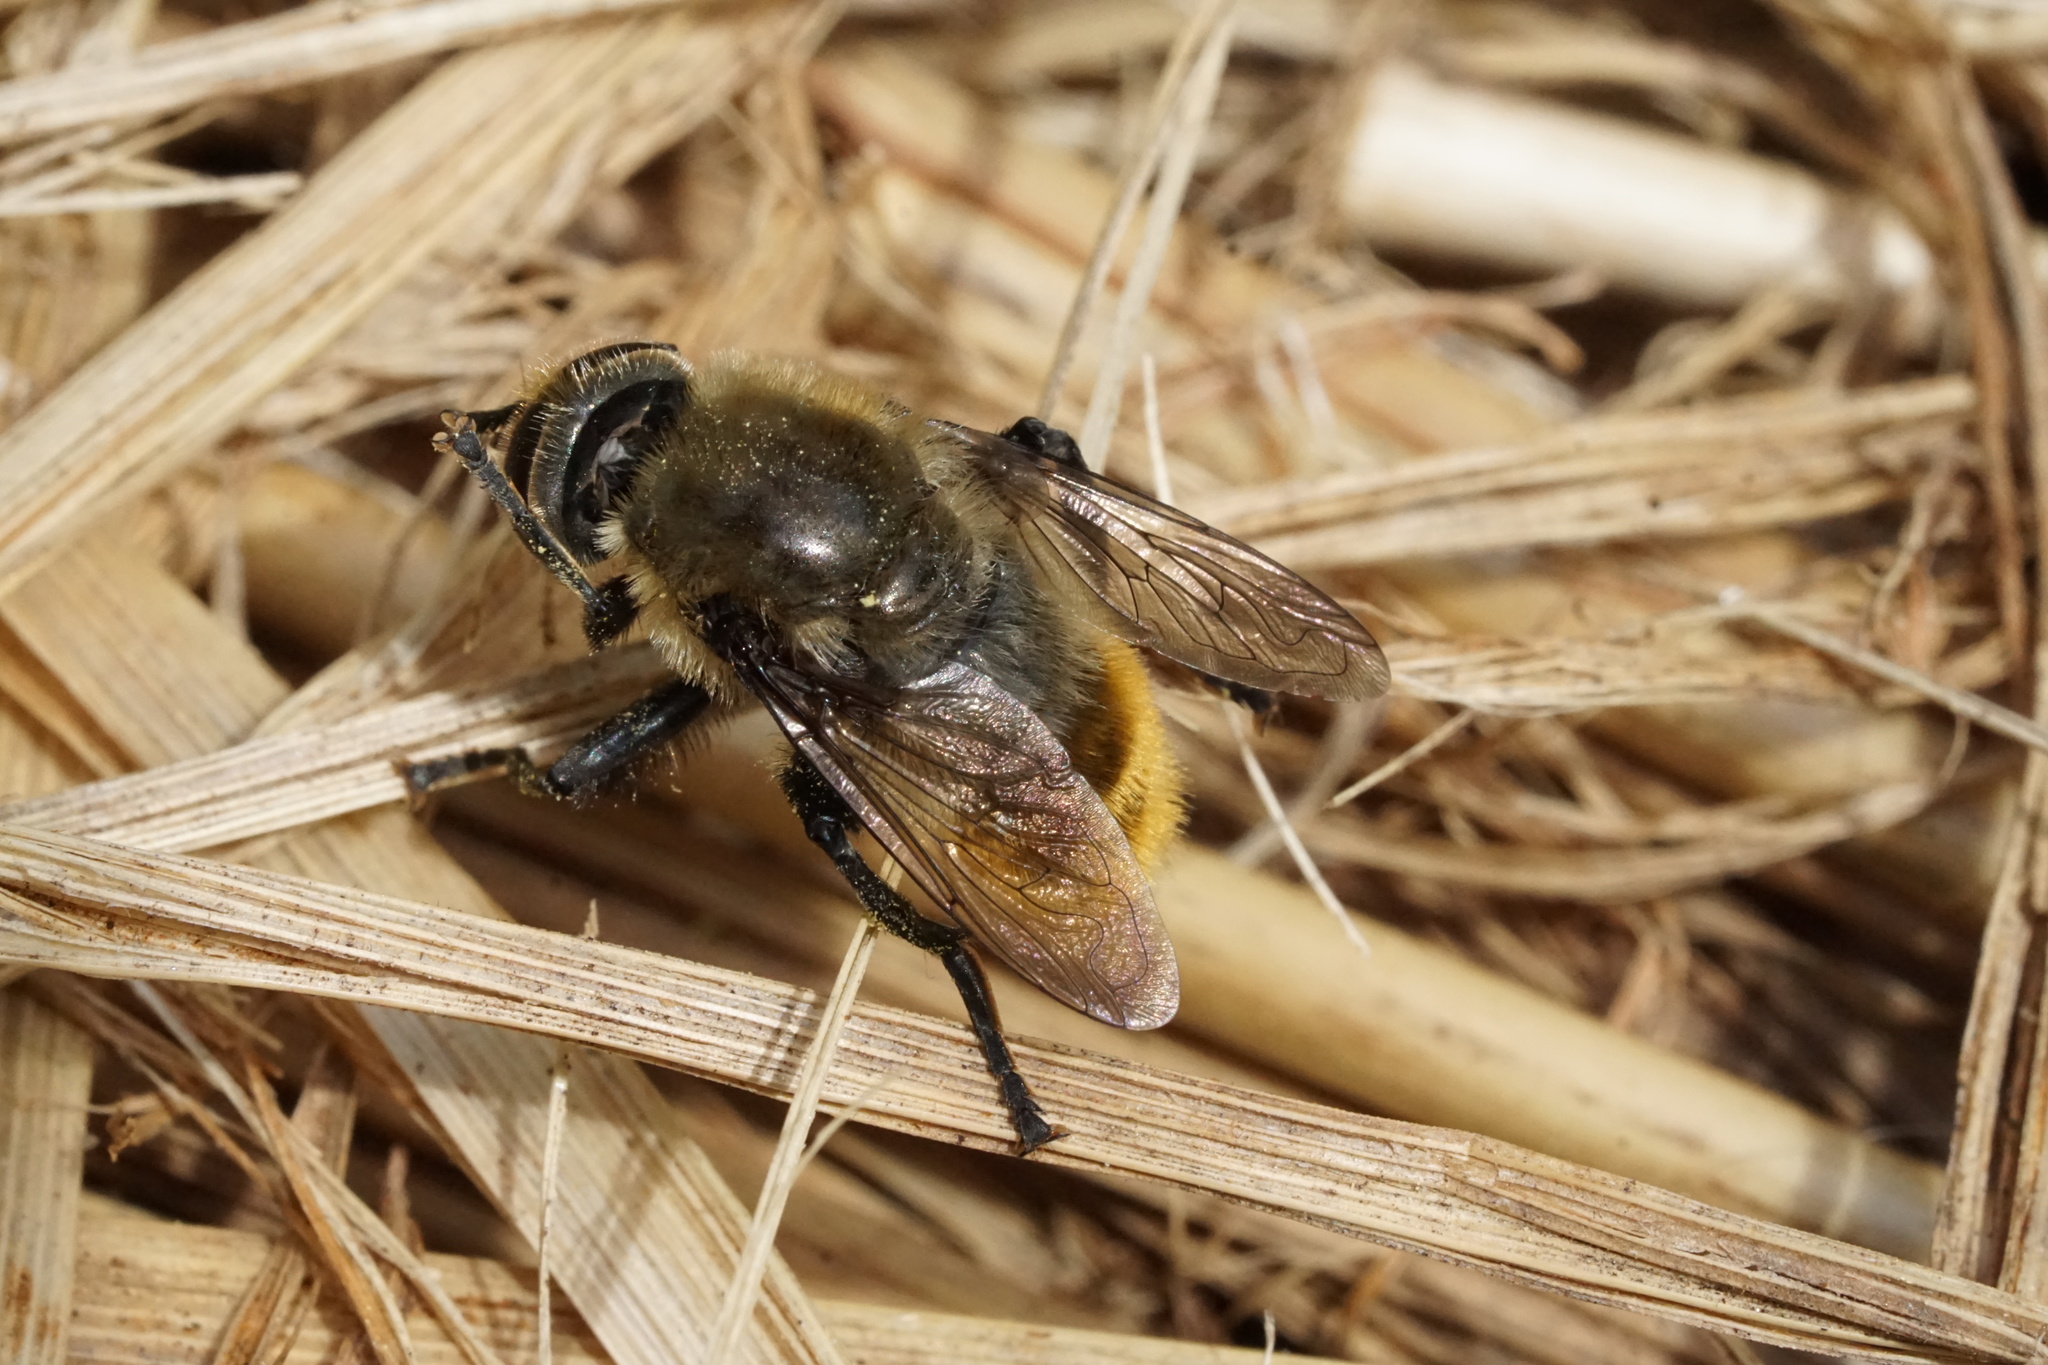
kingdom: Animalia
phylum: Arthropoda
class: Insecta
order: Diptera
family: Syrphidae
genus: Merodon
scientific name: Merodon equestris
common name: Greater bulb-fly
